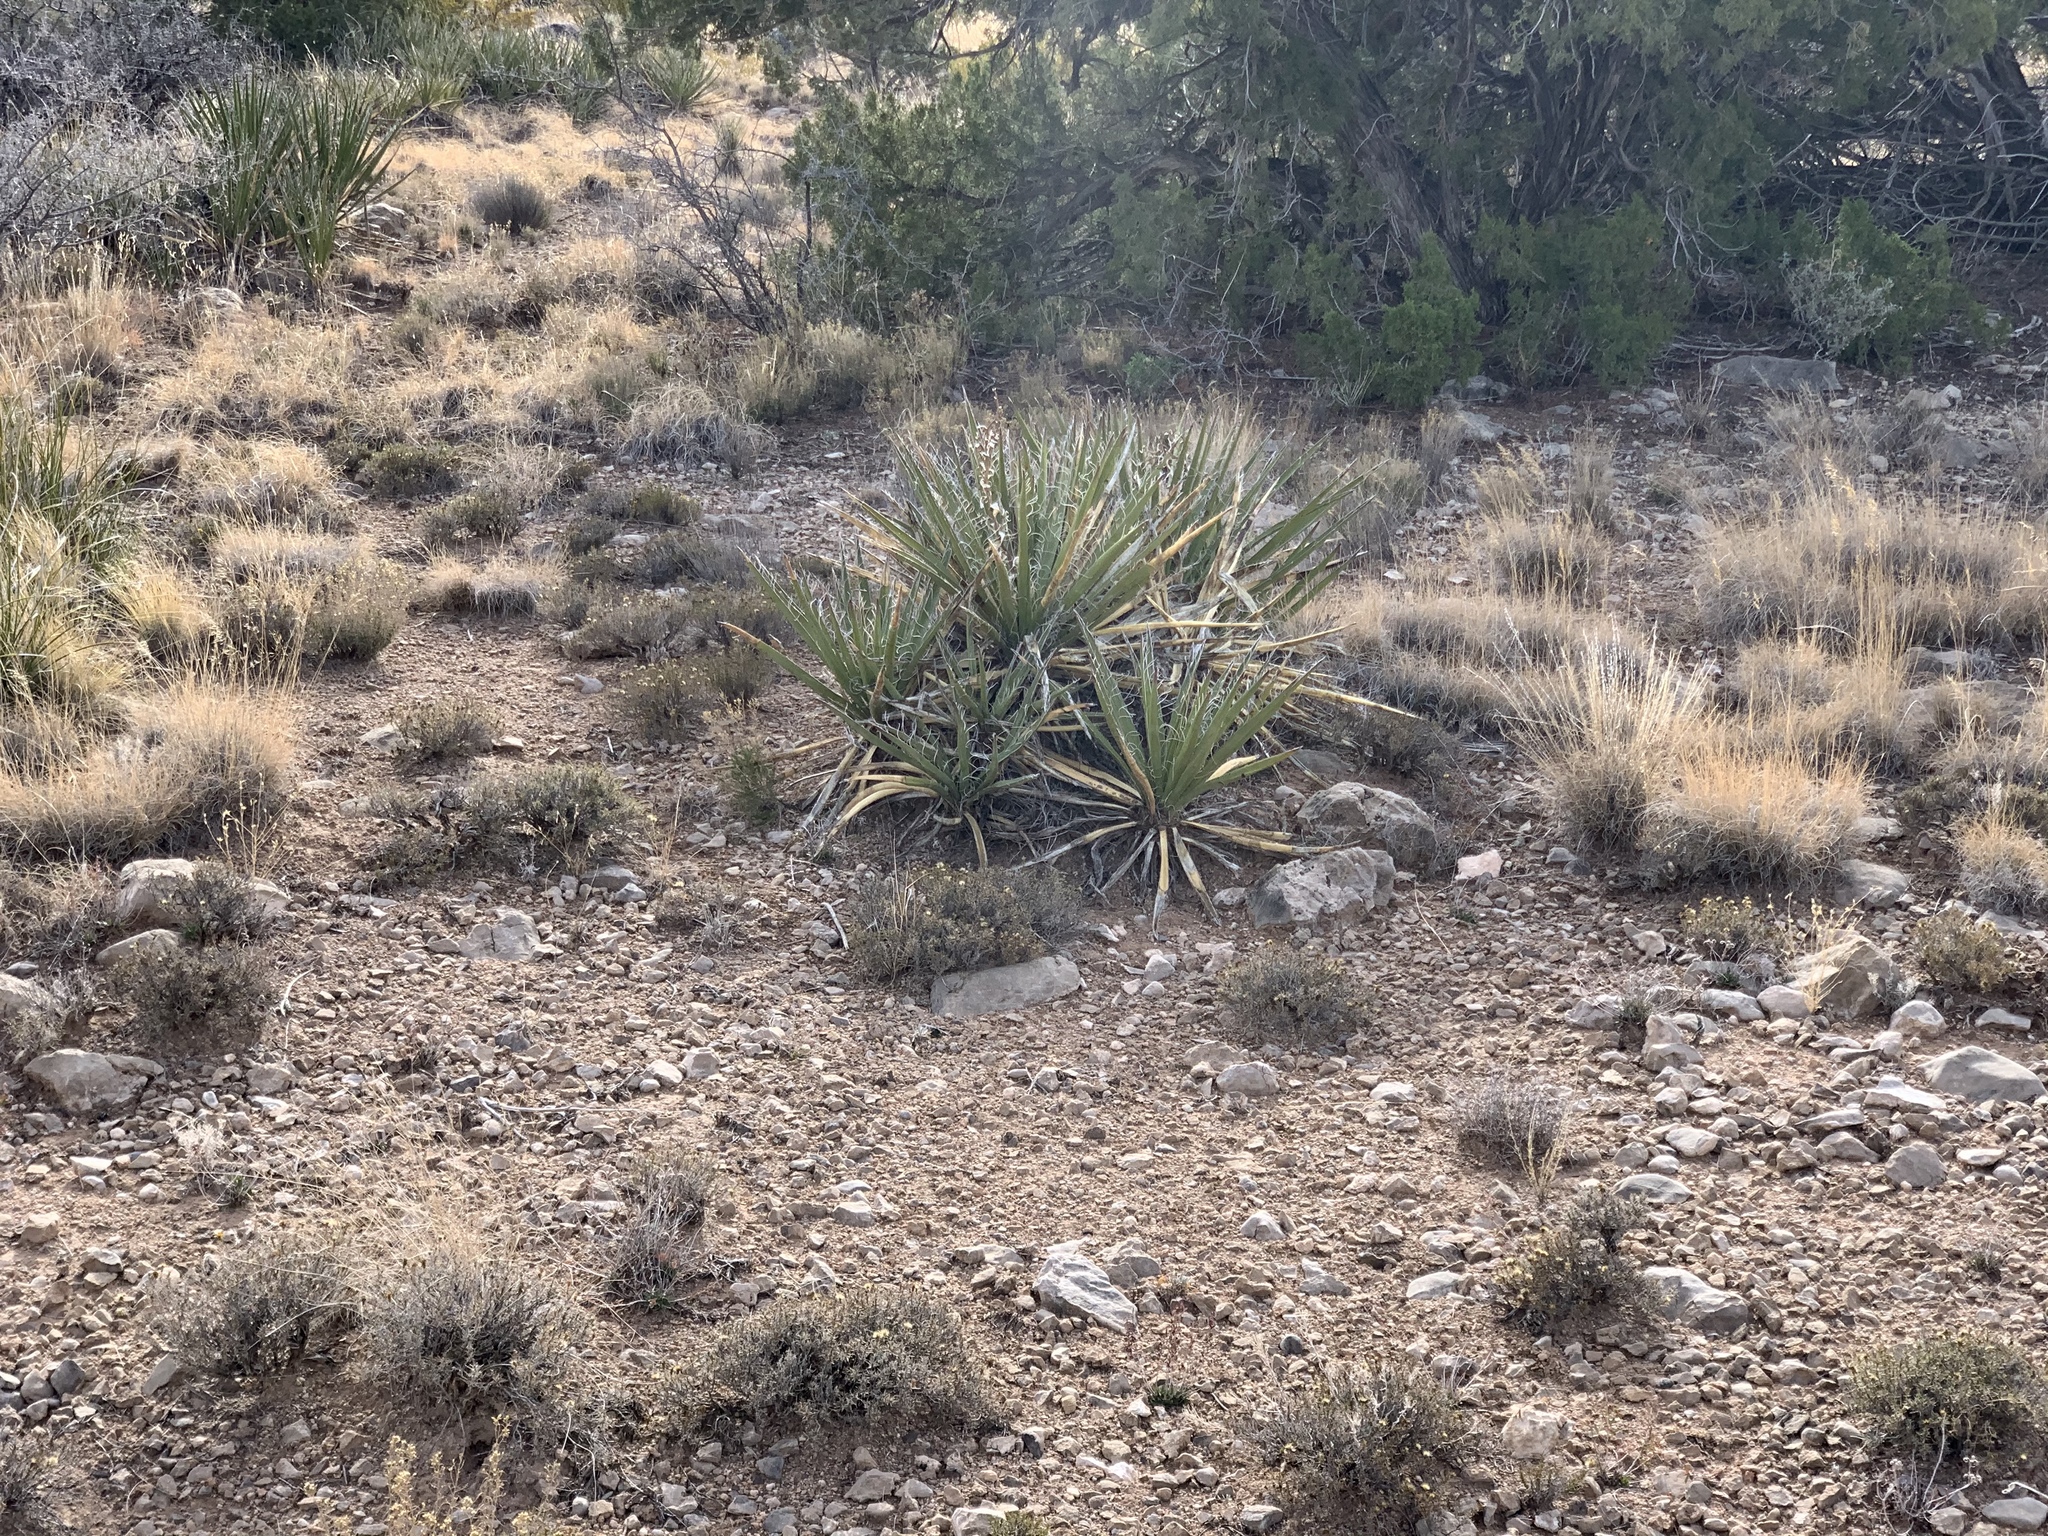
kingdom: Plantae
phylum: Tracheophyta
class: Liliopsida
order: Asparagales
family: Asparagaceae
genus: Yucca
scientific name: Yucca baccata
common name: Banana yucca
